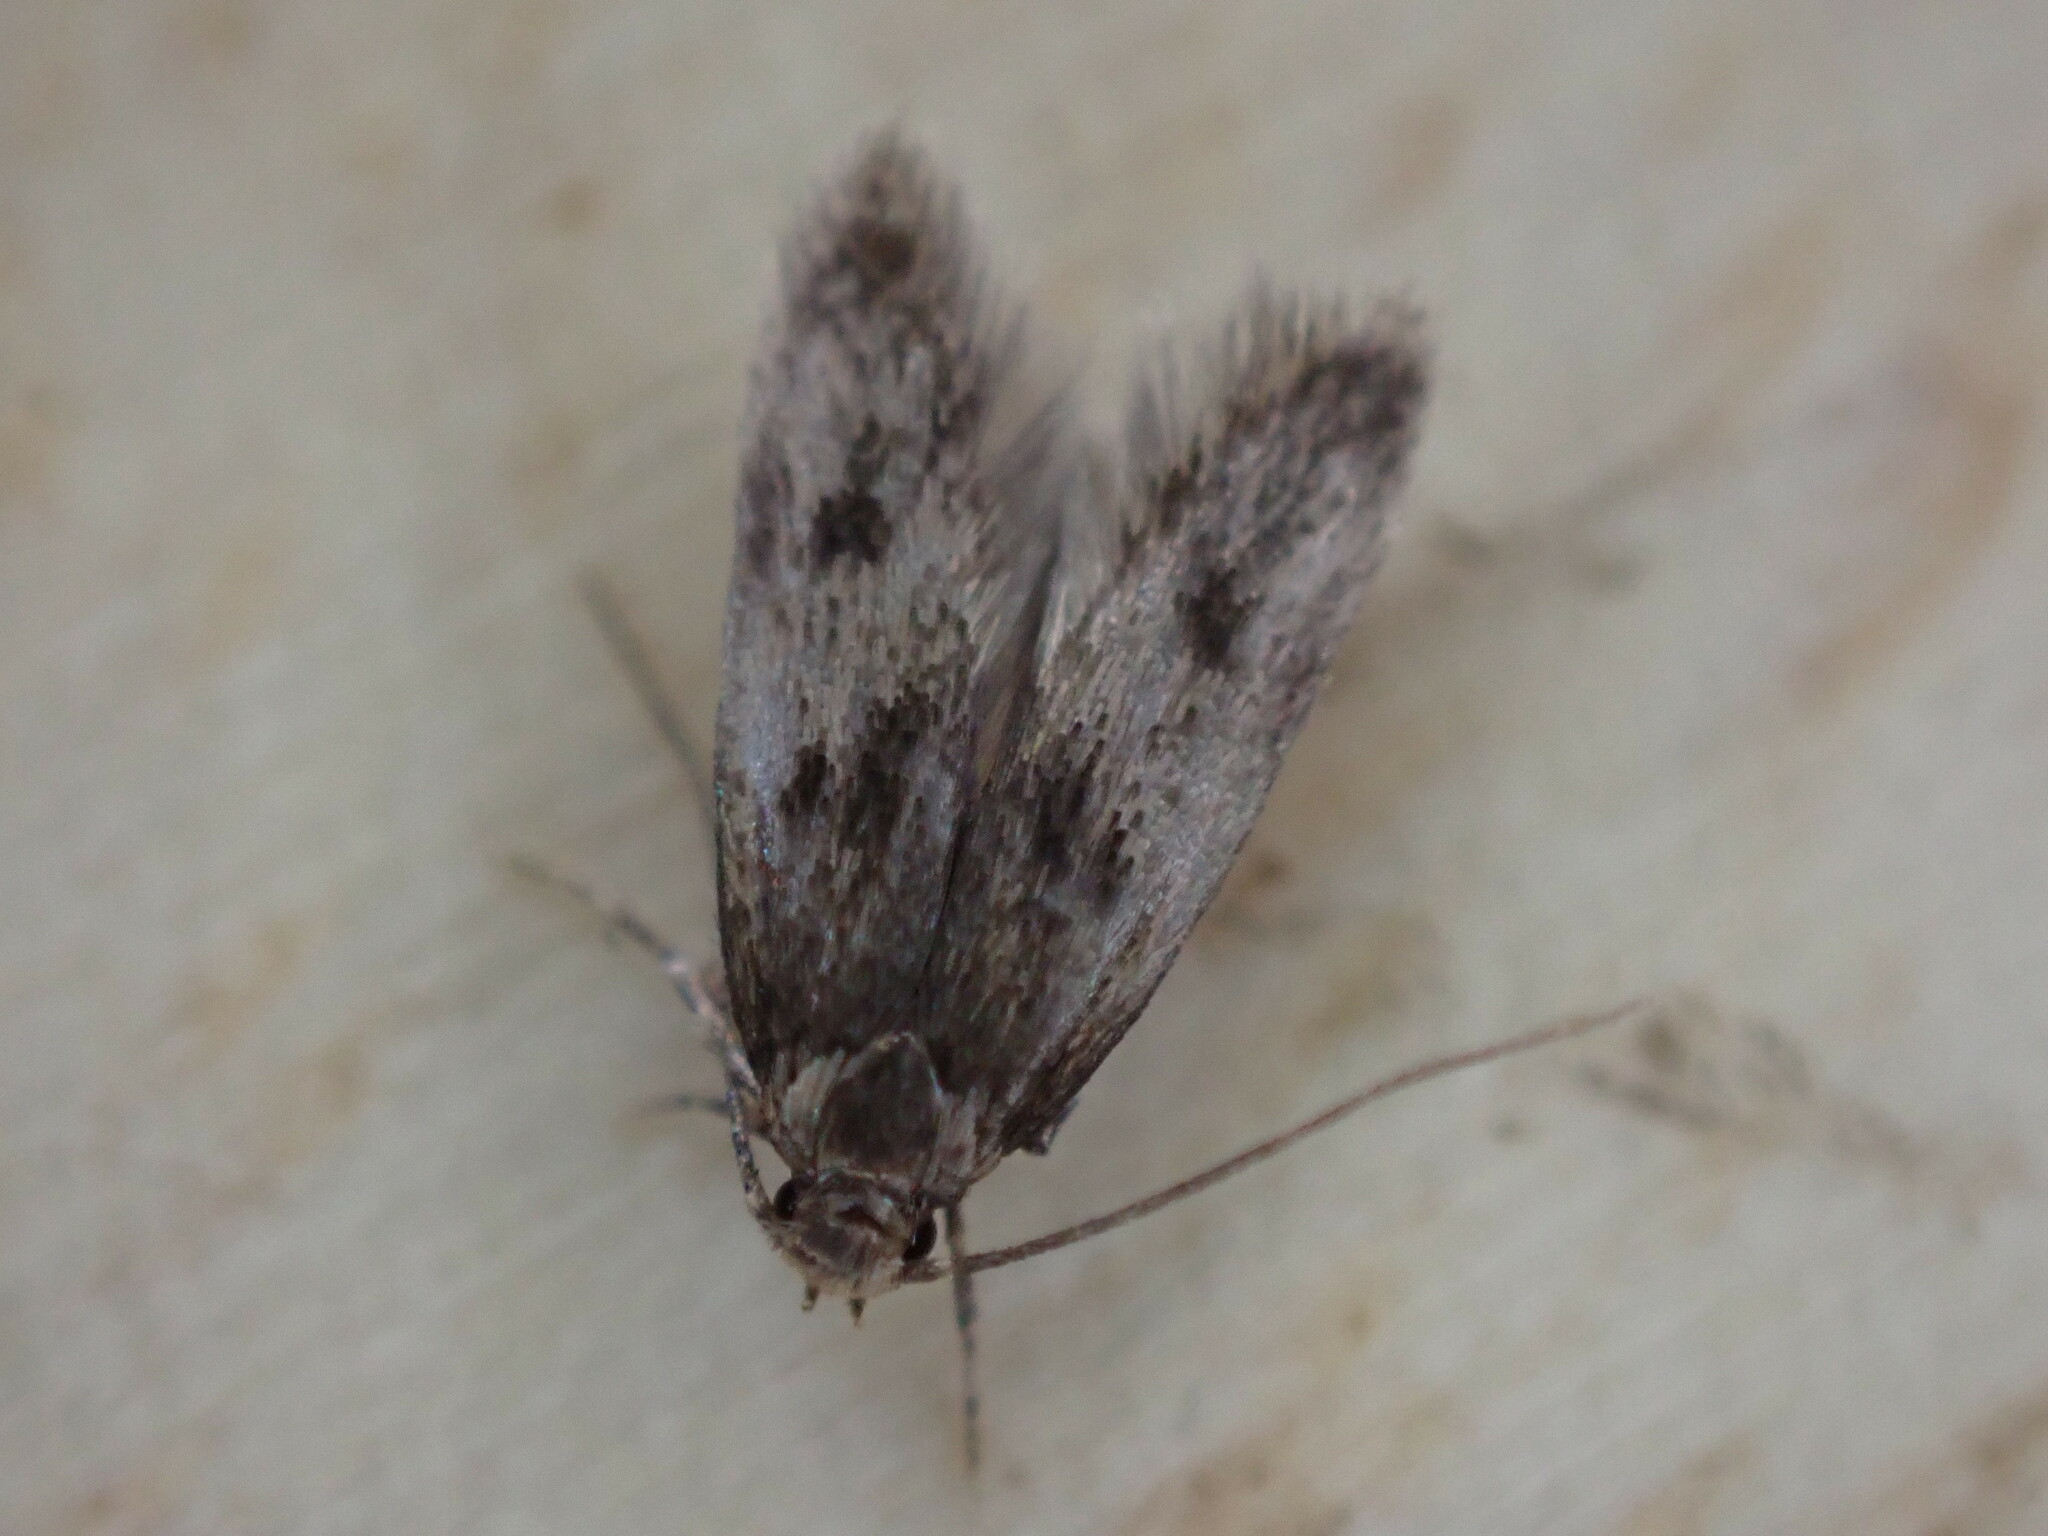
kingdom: Animalia
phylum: Arthropoda
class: Insecta
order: Lepidoptera
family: Oecophoridae
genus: Borkhausenia
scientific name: Borkhausenia fuscescens
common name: Small dingy tubic
